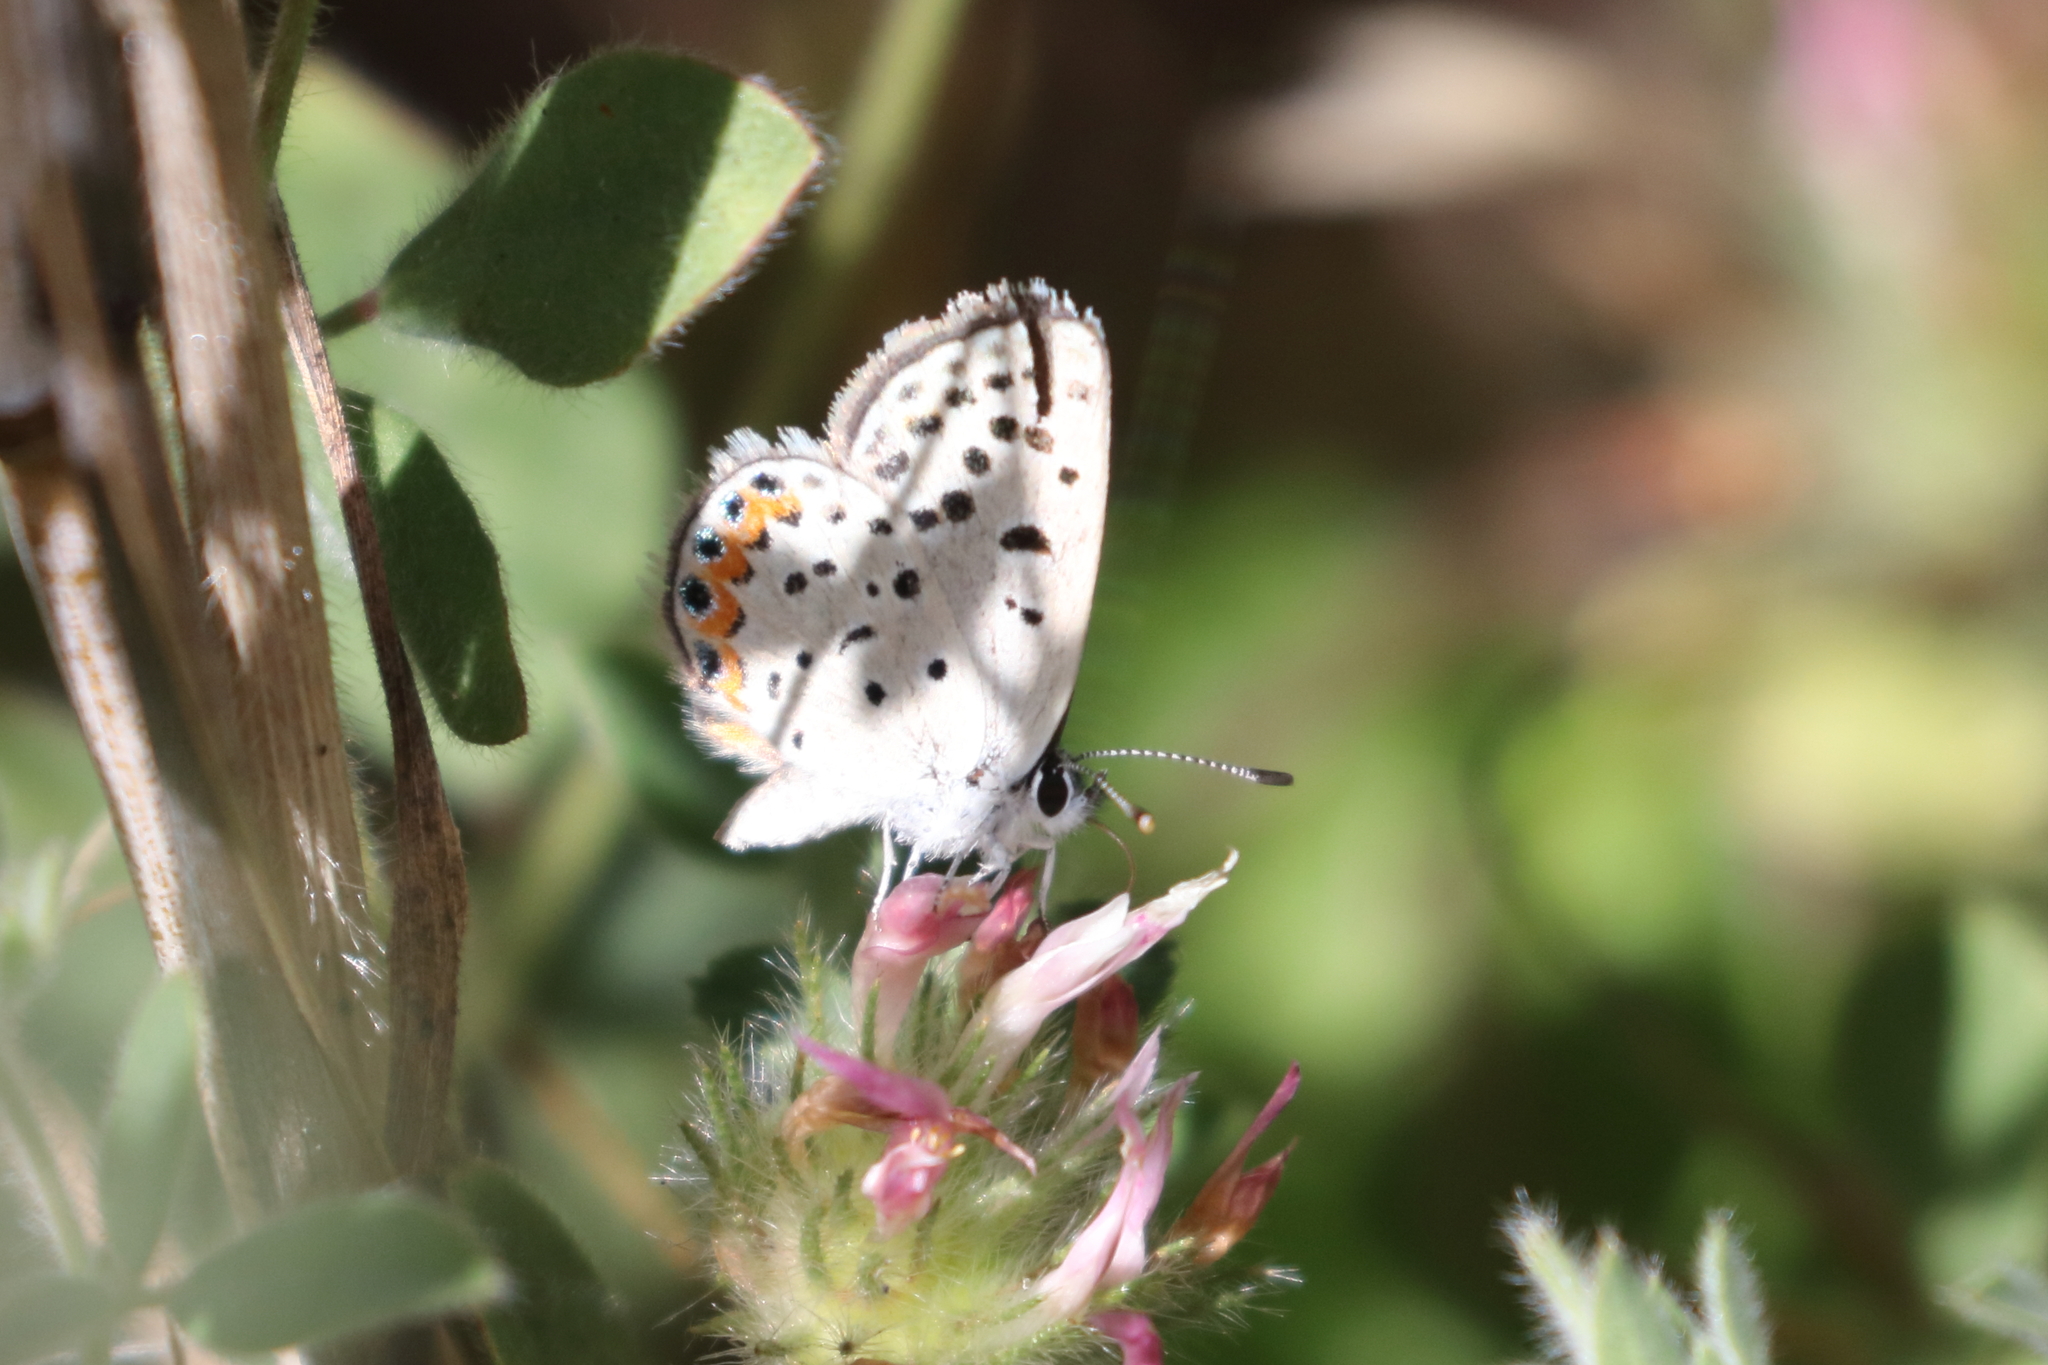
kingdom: Animalia
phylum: Arthropoda
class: Insecta
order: Lepidoptera
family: Lycaenidae
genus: Icaricia
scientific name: Icaricia acmon
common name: Acmon blue
